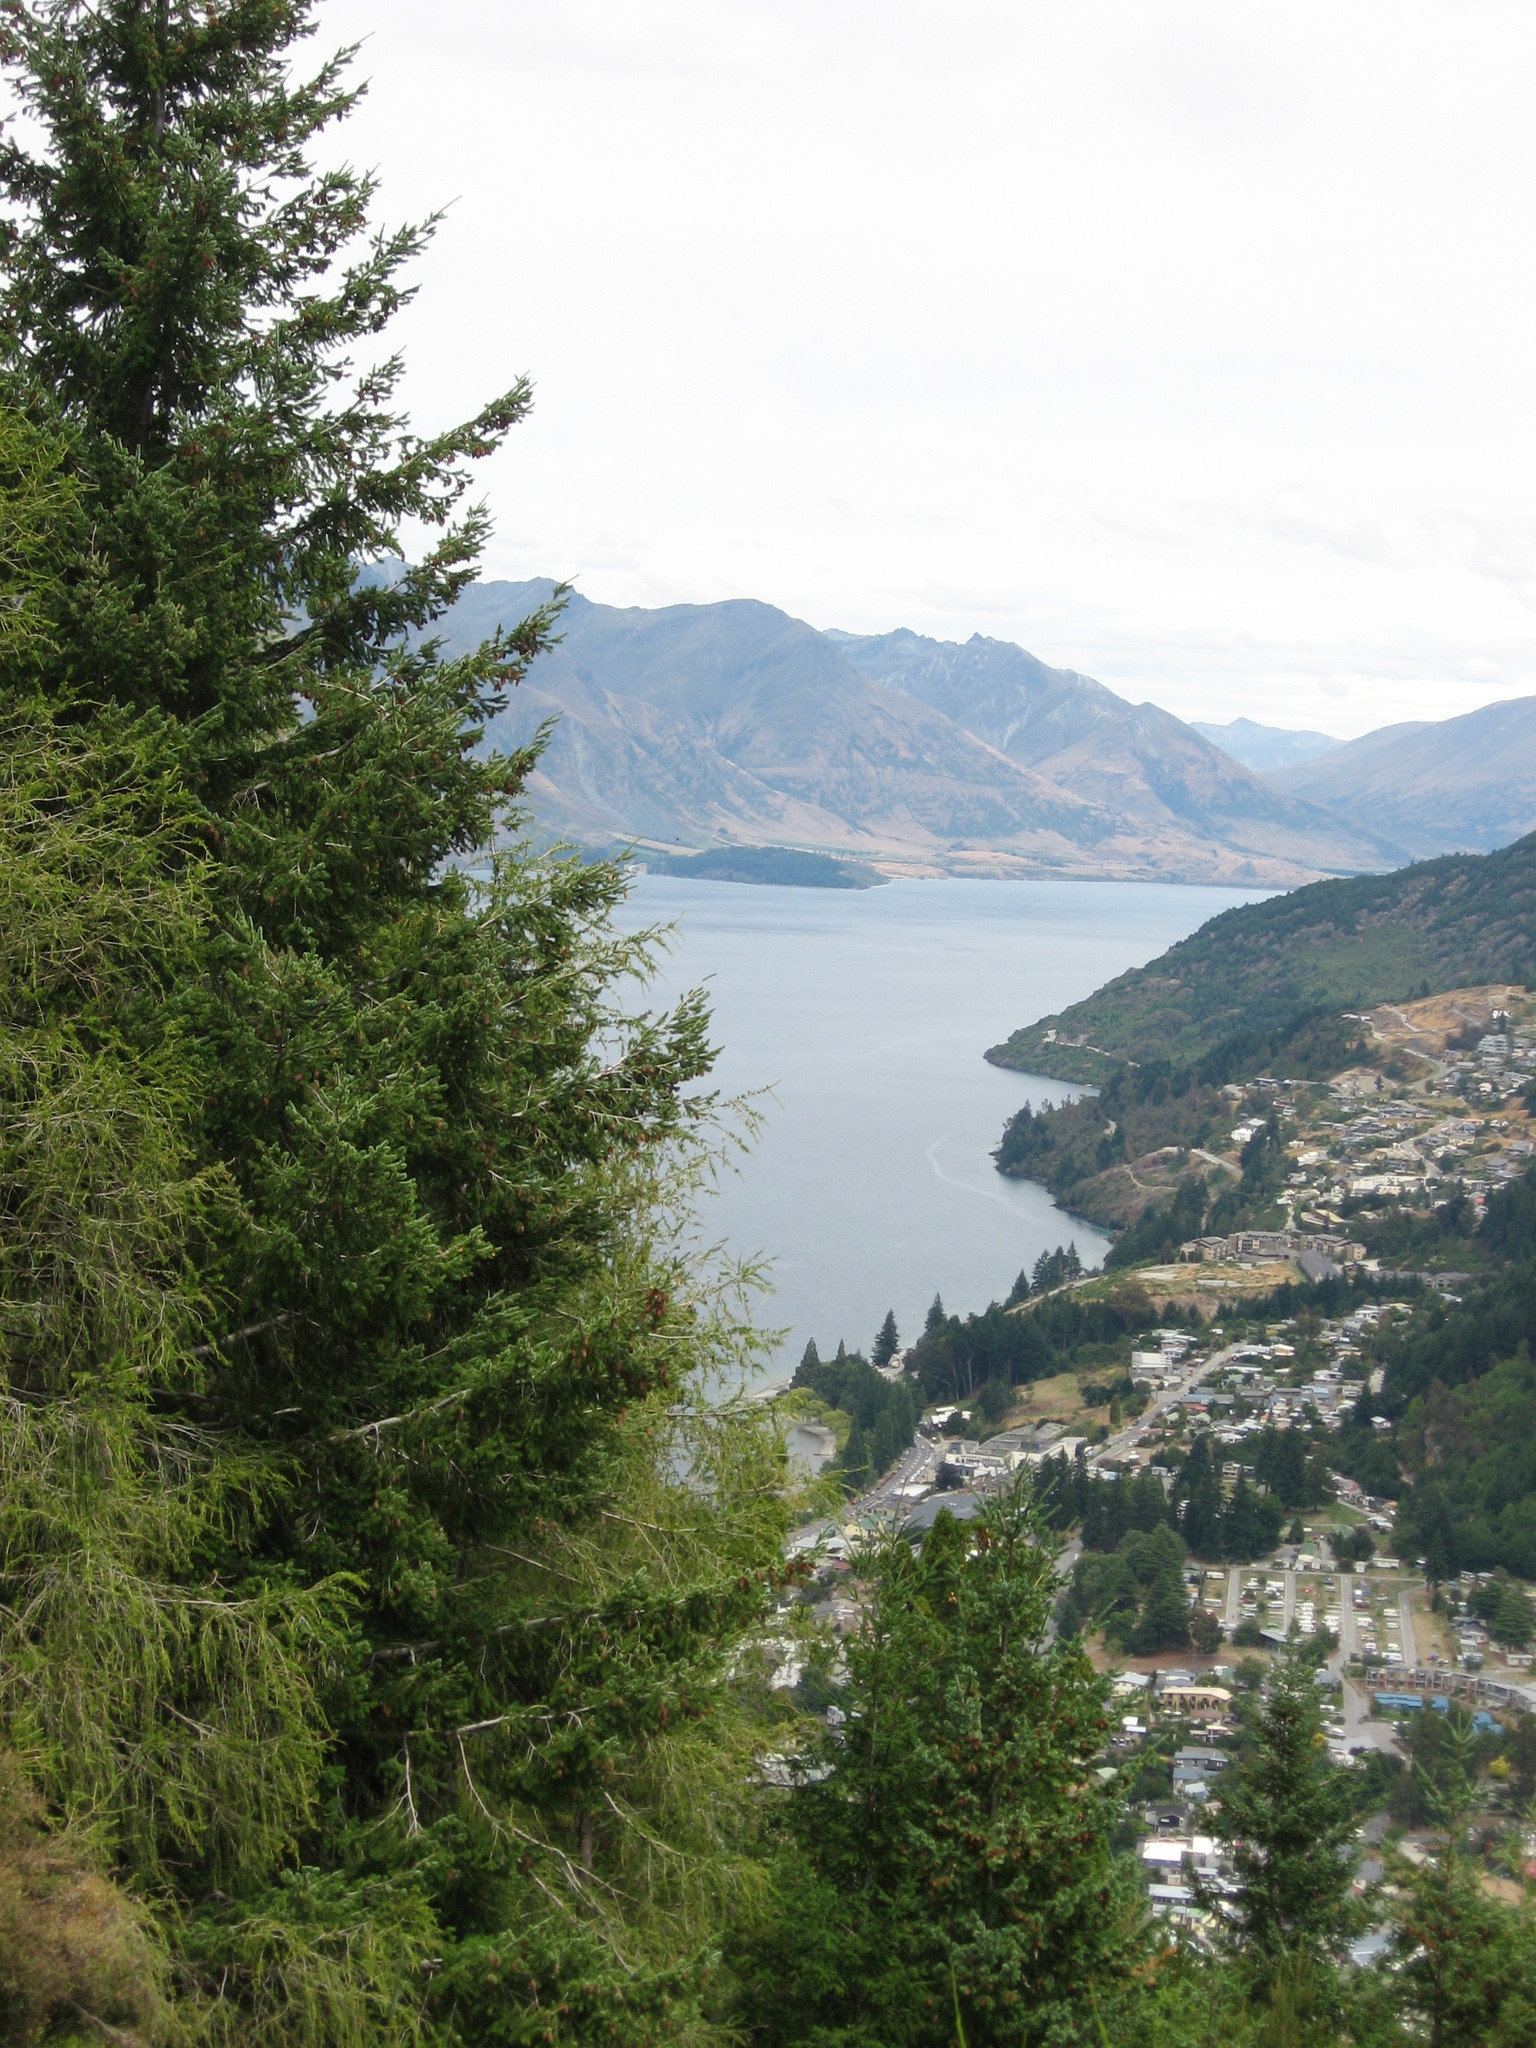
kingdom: Plantae
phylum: Tracheophyta
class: Pinopsida
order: Pinales
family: Pinaceae
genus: Pseudotsuga
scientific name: Pseudotsuga menziesii
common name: Douglas fir
